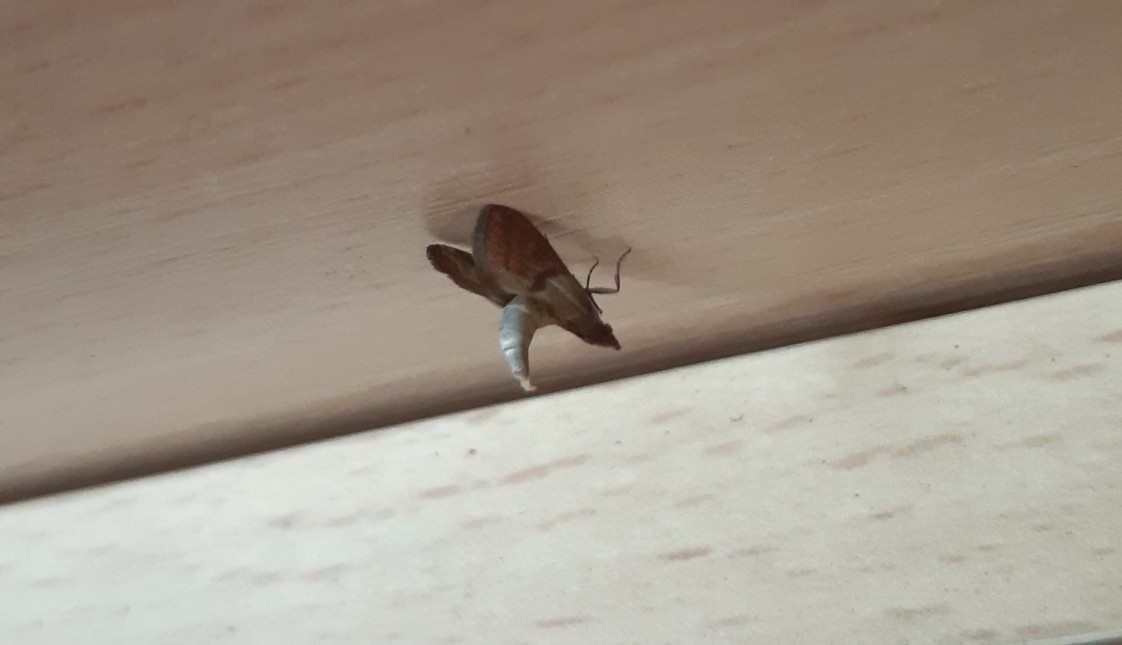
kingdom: Animalia
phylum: Arthropoda
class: Insecta
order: Lepidoptera
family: Pyralidae
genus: Plodia
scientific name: Plodia interpunctella
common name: Indian meal moth
